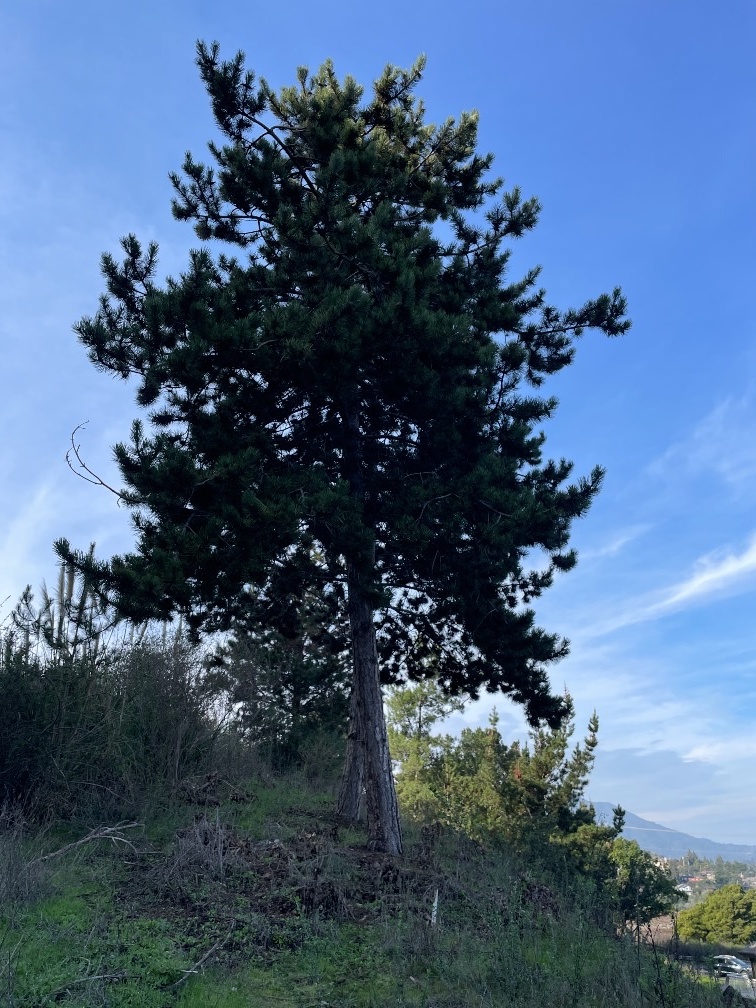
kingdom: Plantae
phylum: Tracheophyta
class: Pinopsida
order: Pinales
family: Pinaceae
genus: Pinus
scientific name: Pinus radiata
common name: Monterey pine
